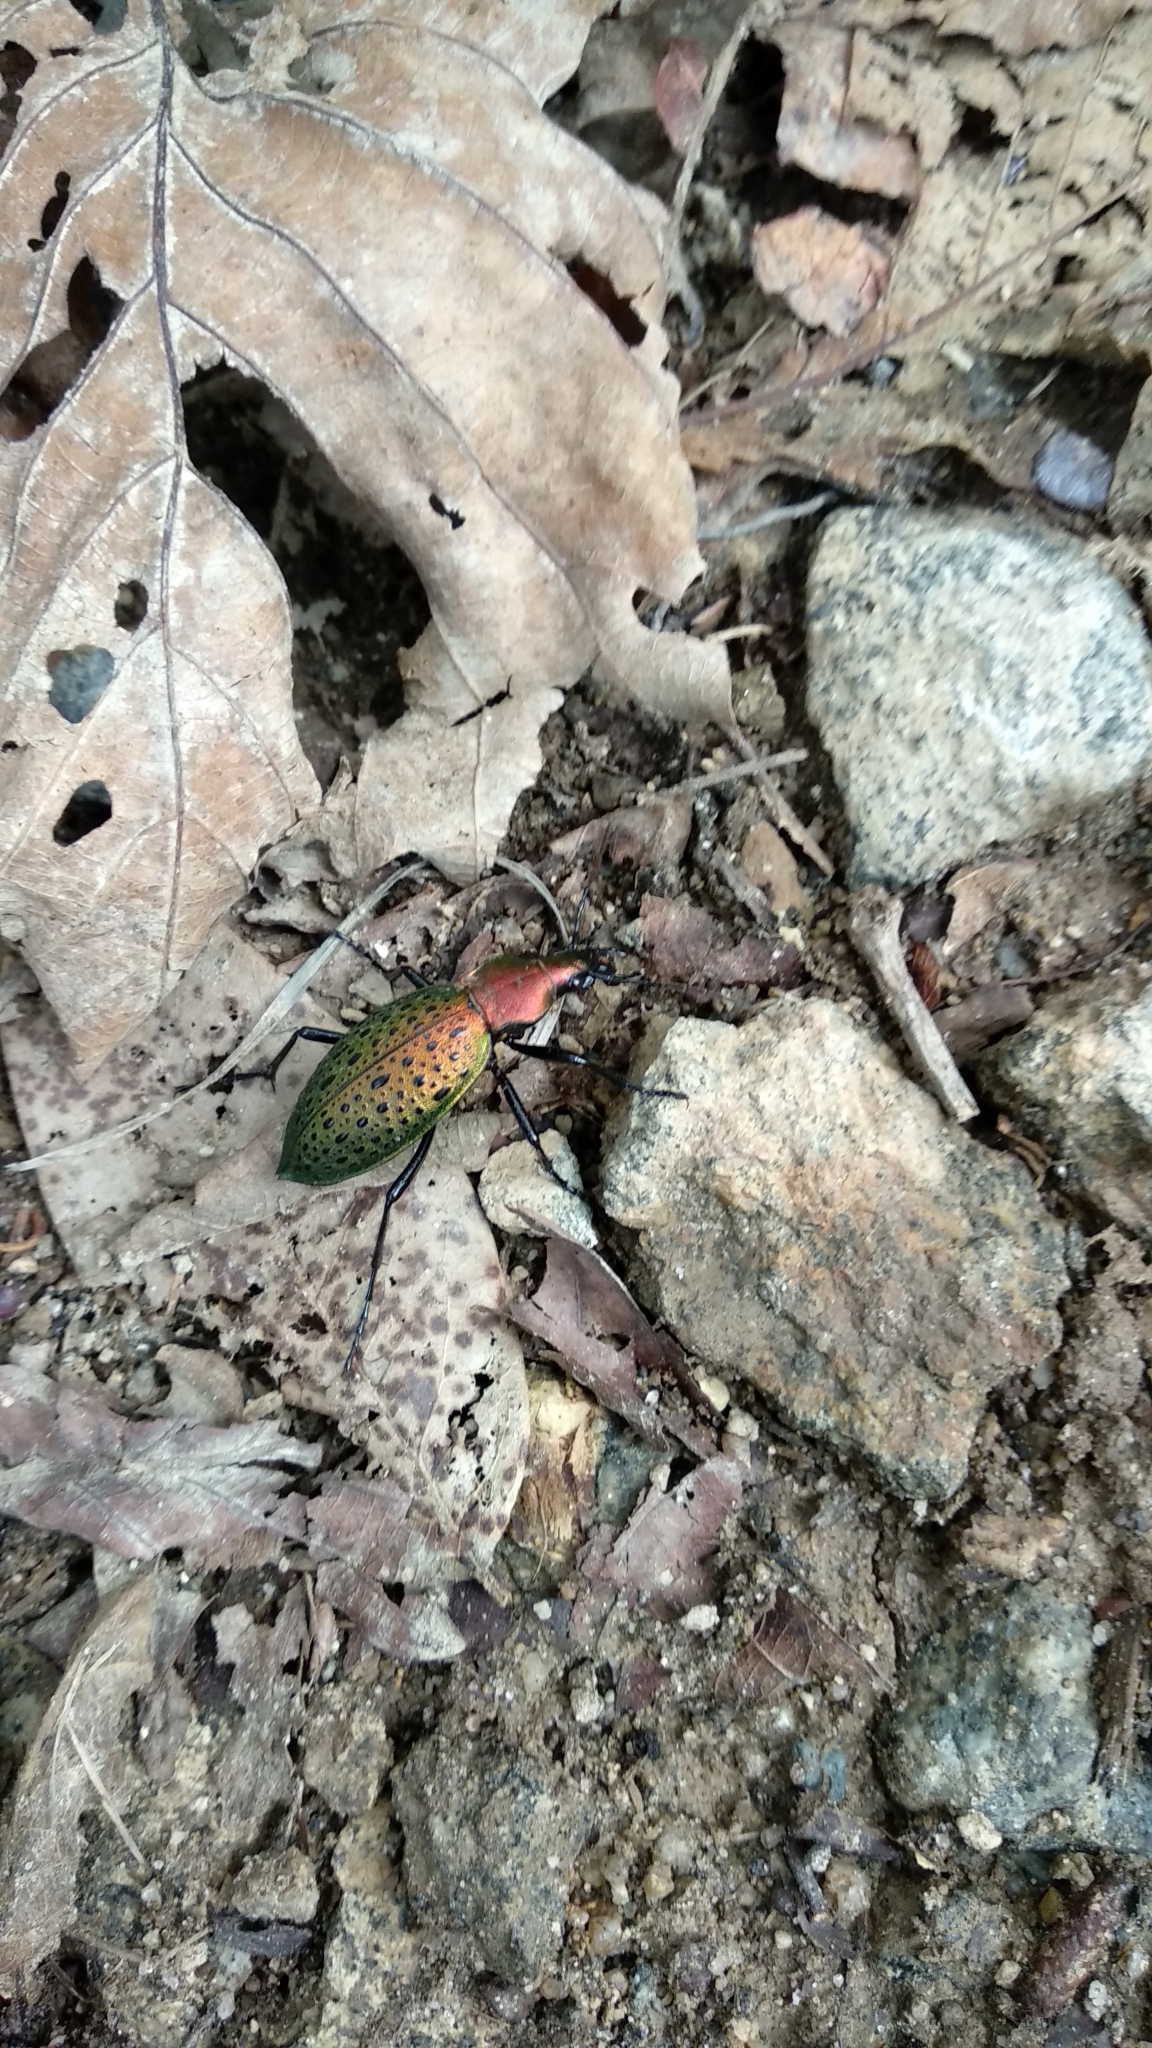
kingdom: Animalia
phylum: Arthropoda
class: Insecta
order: Coleoptera
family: Carabidae
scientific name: Carabidae
